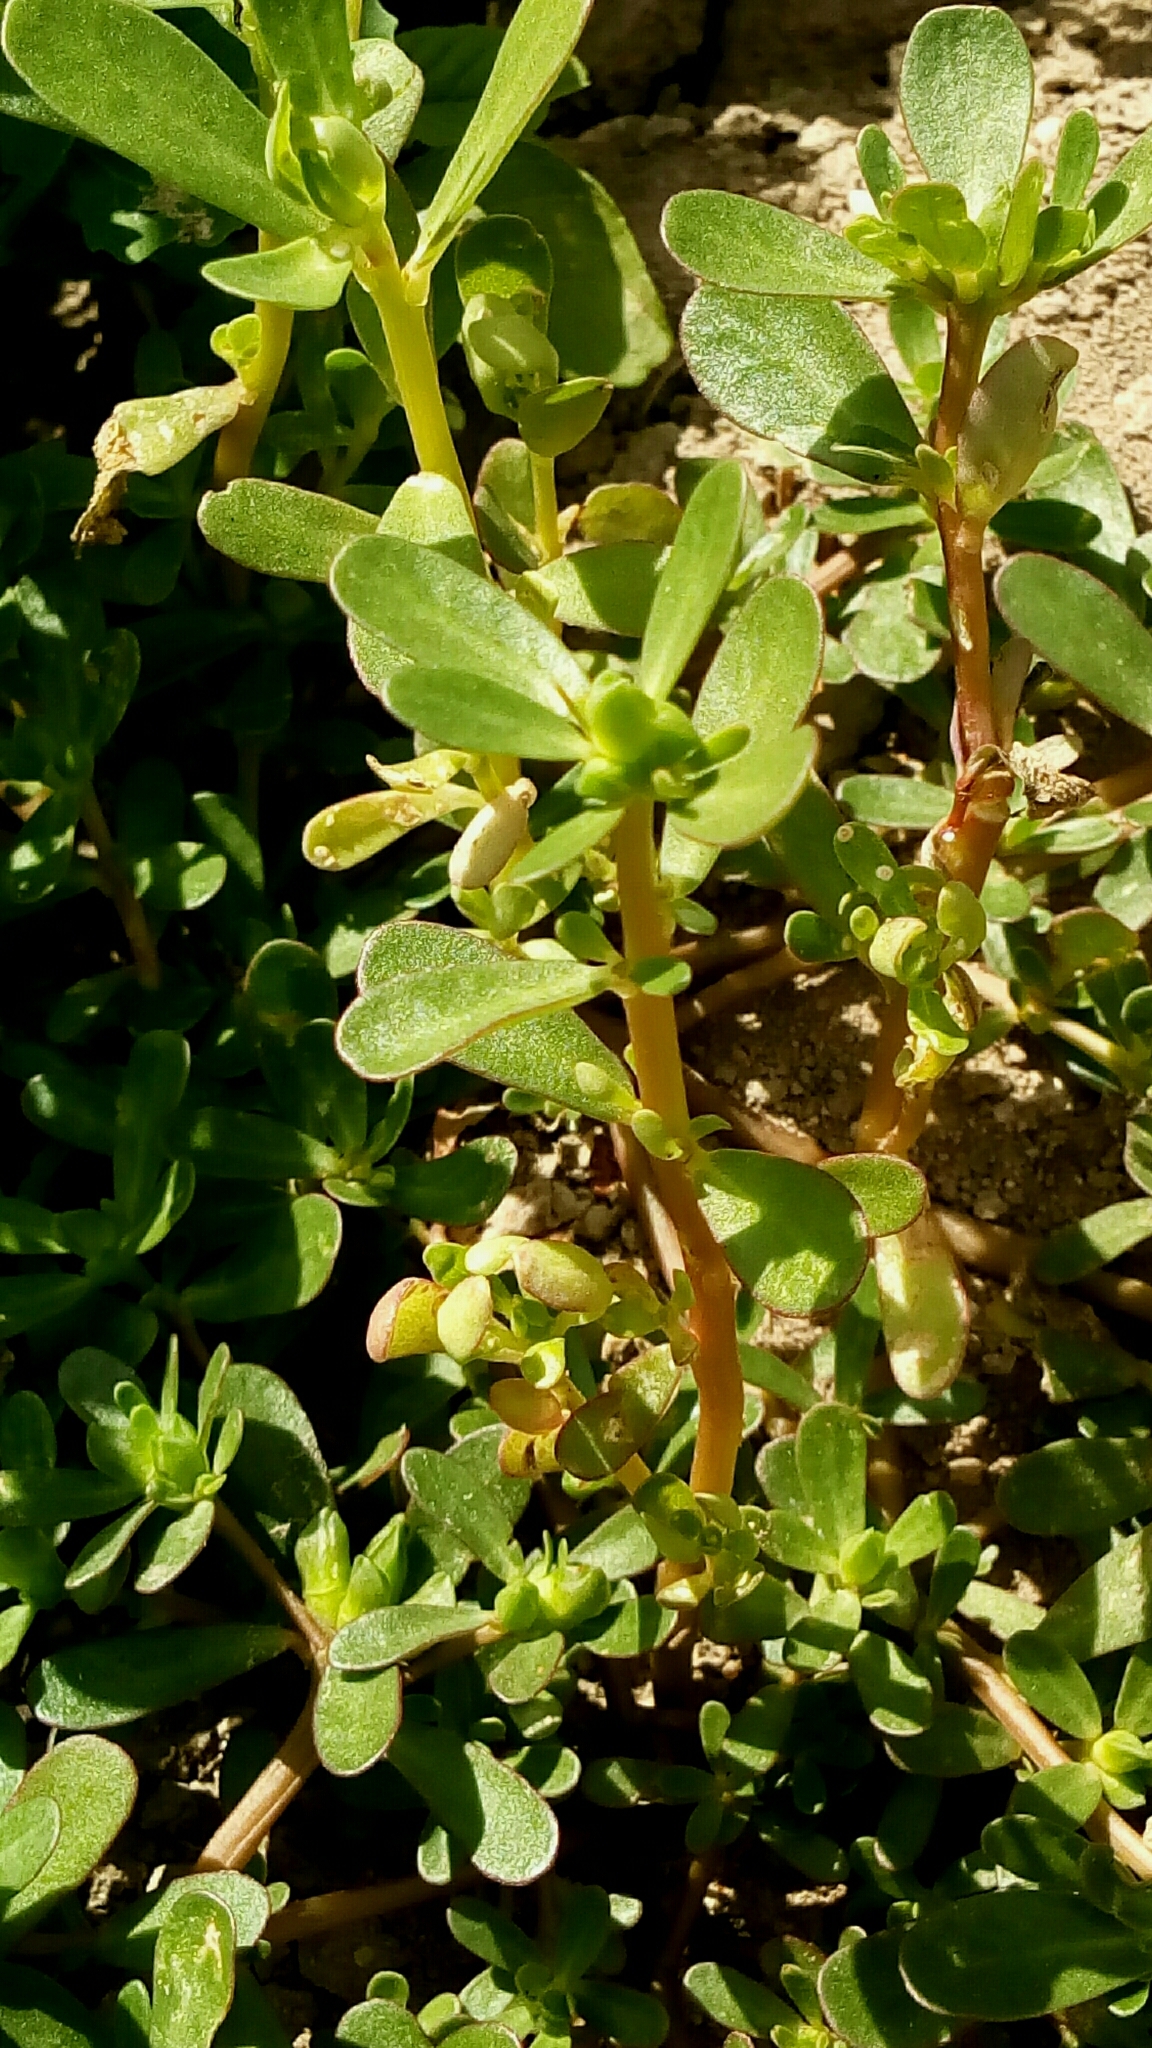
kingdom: Plantae
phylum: Tracheophyta
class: Magnoliopsida
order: Caryophyllales
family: Portulacaceae
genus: Portulaca
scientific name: Portulaca oleracea
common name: Common purslane
